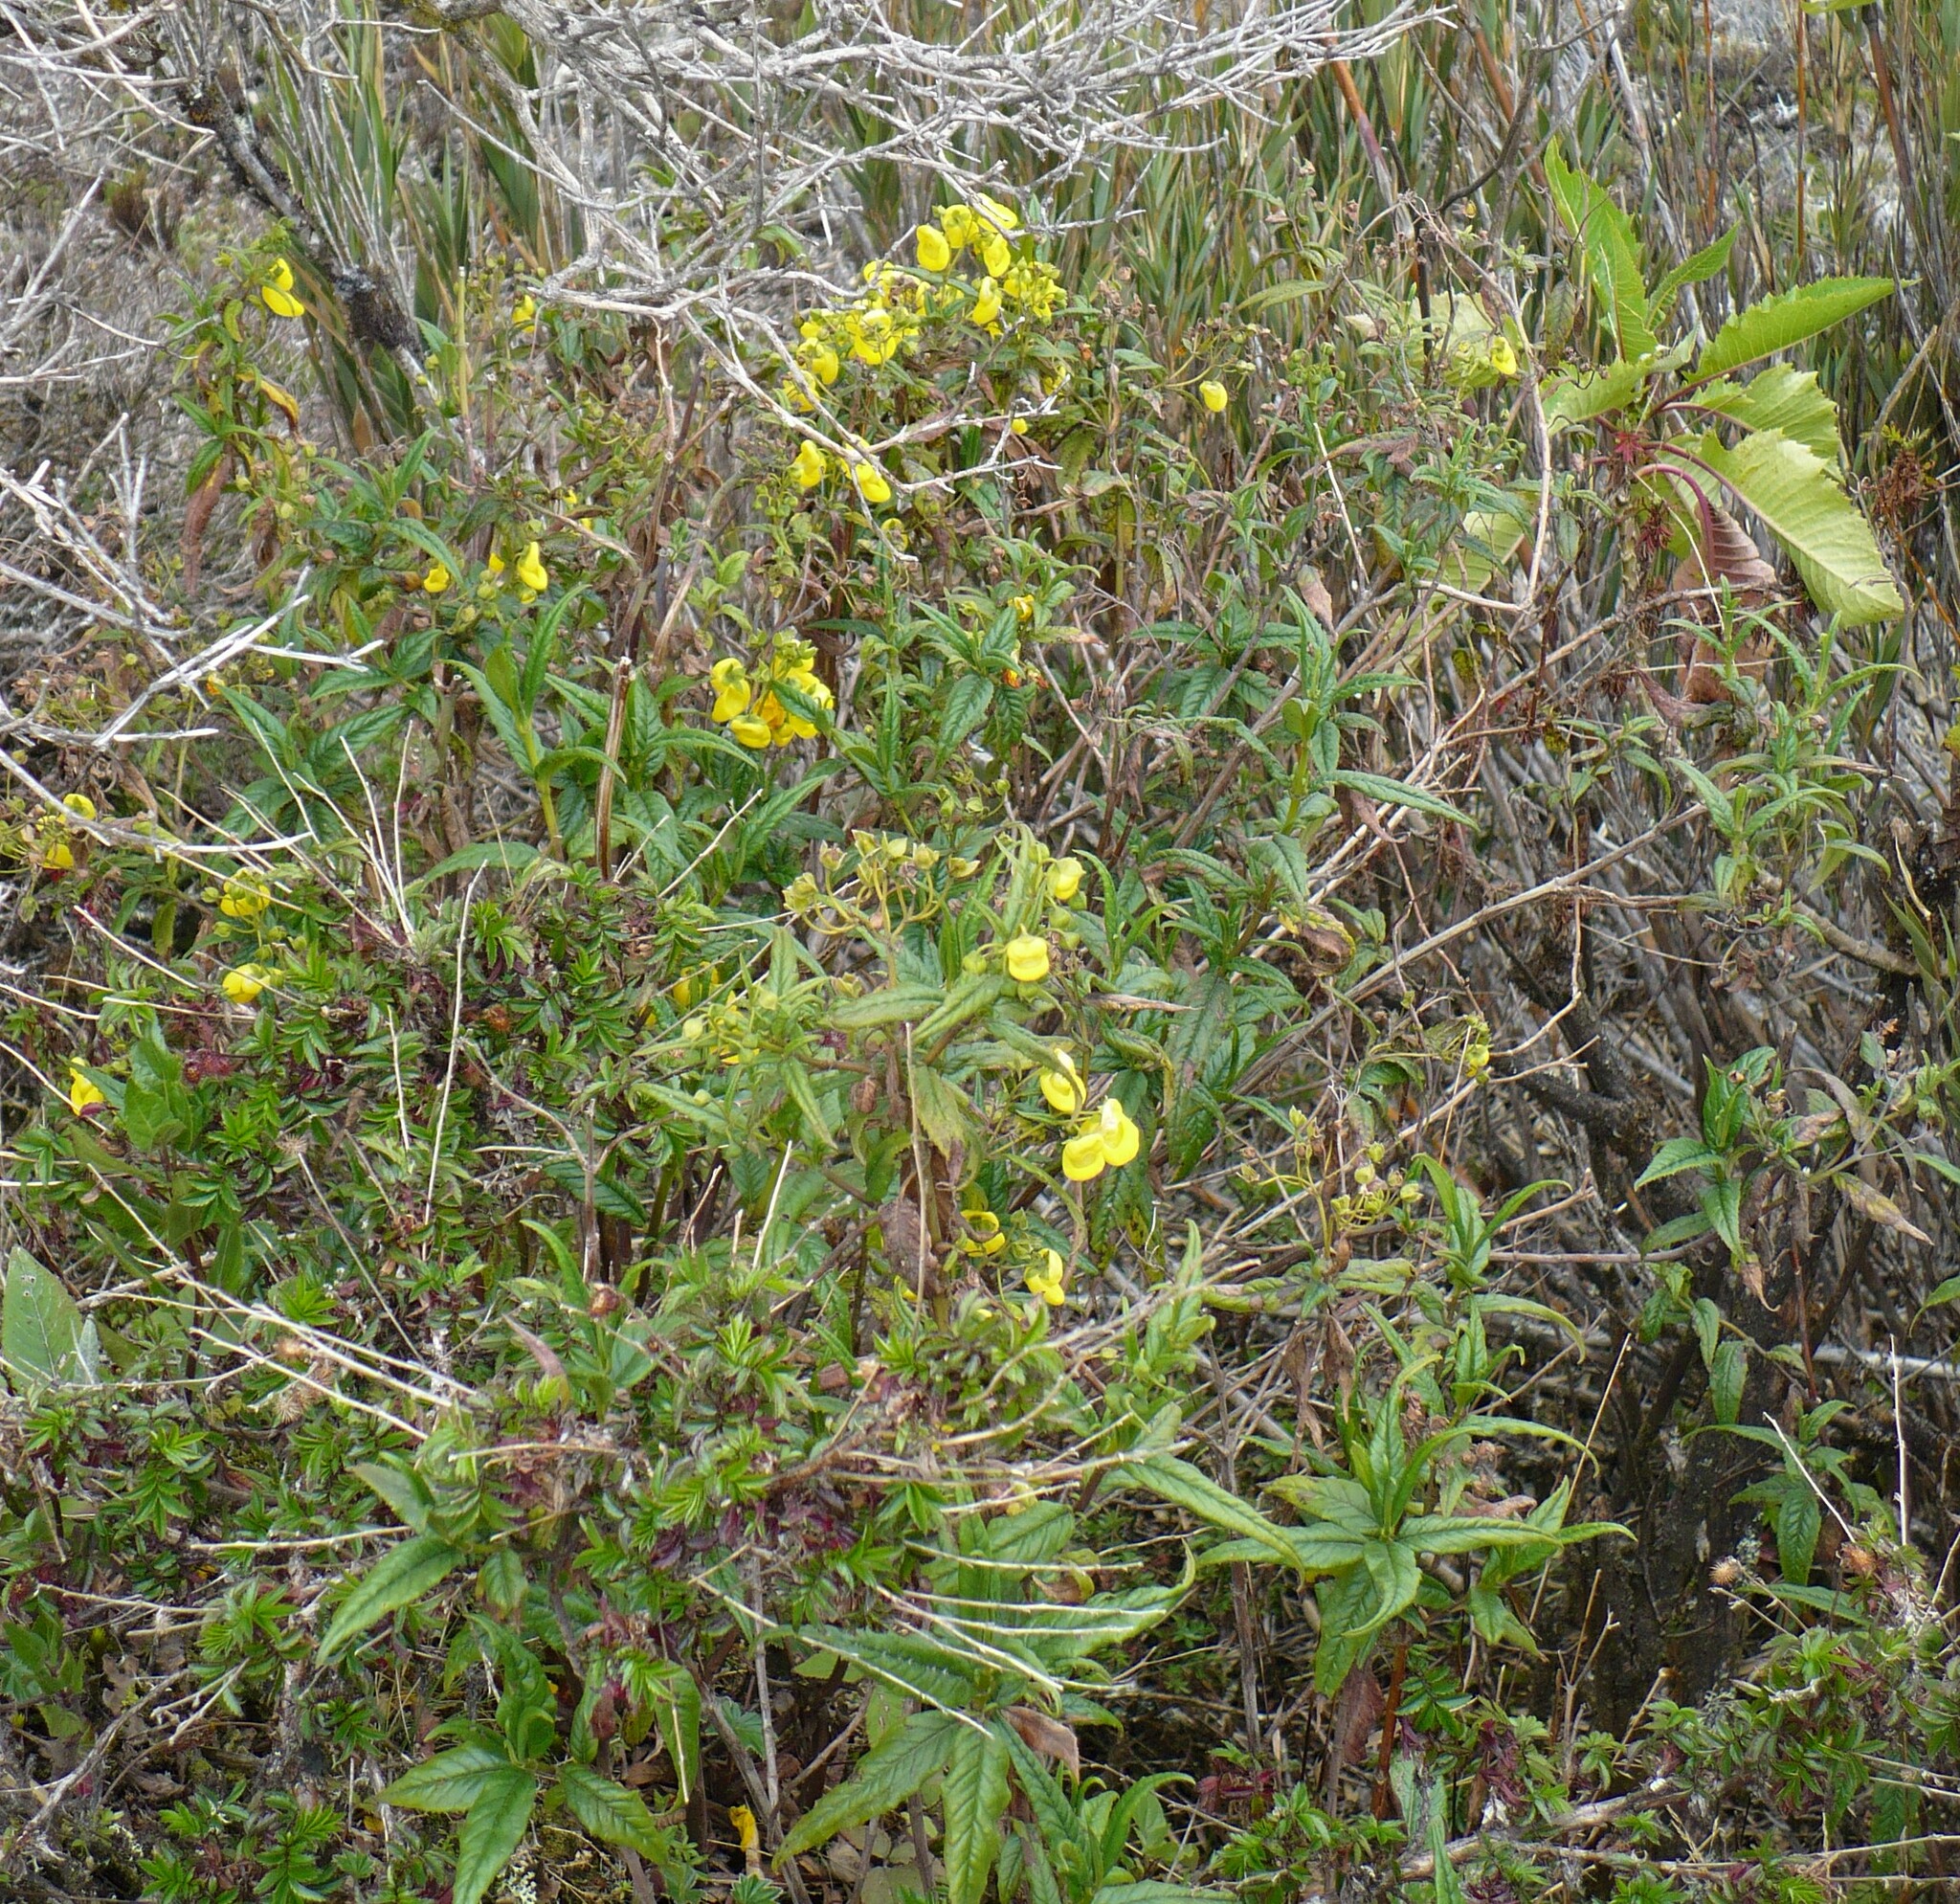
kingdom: Plantae
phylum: Tracheophyta
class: Magnoliopsida
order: Lamiales
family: Calceolariaceae
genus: Calceolaria
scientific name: Calceolaria microbefaria
